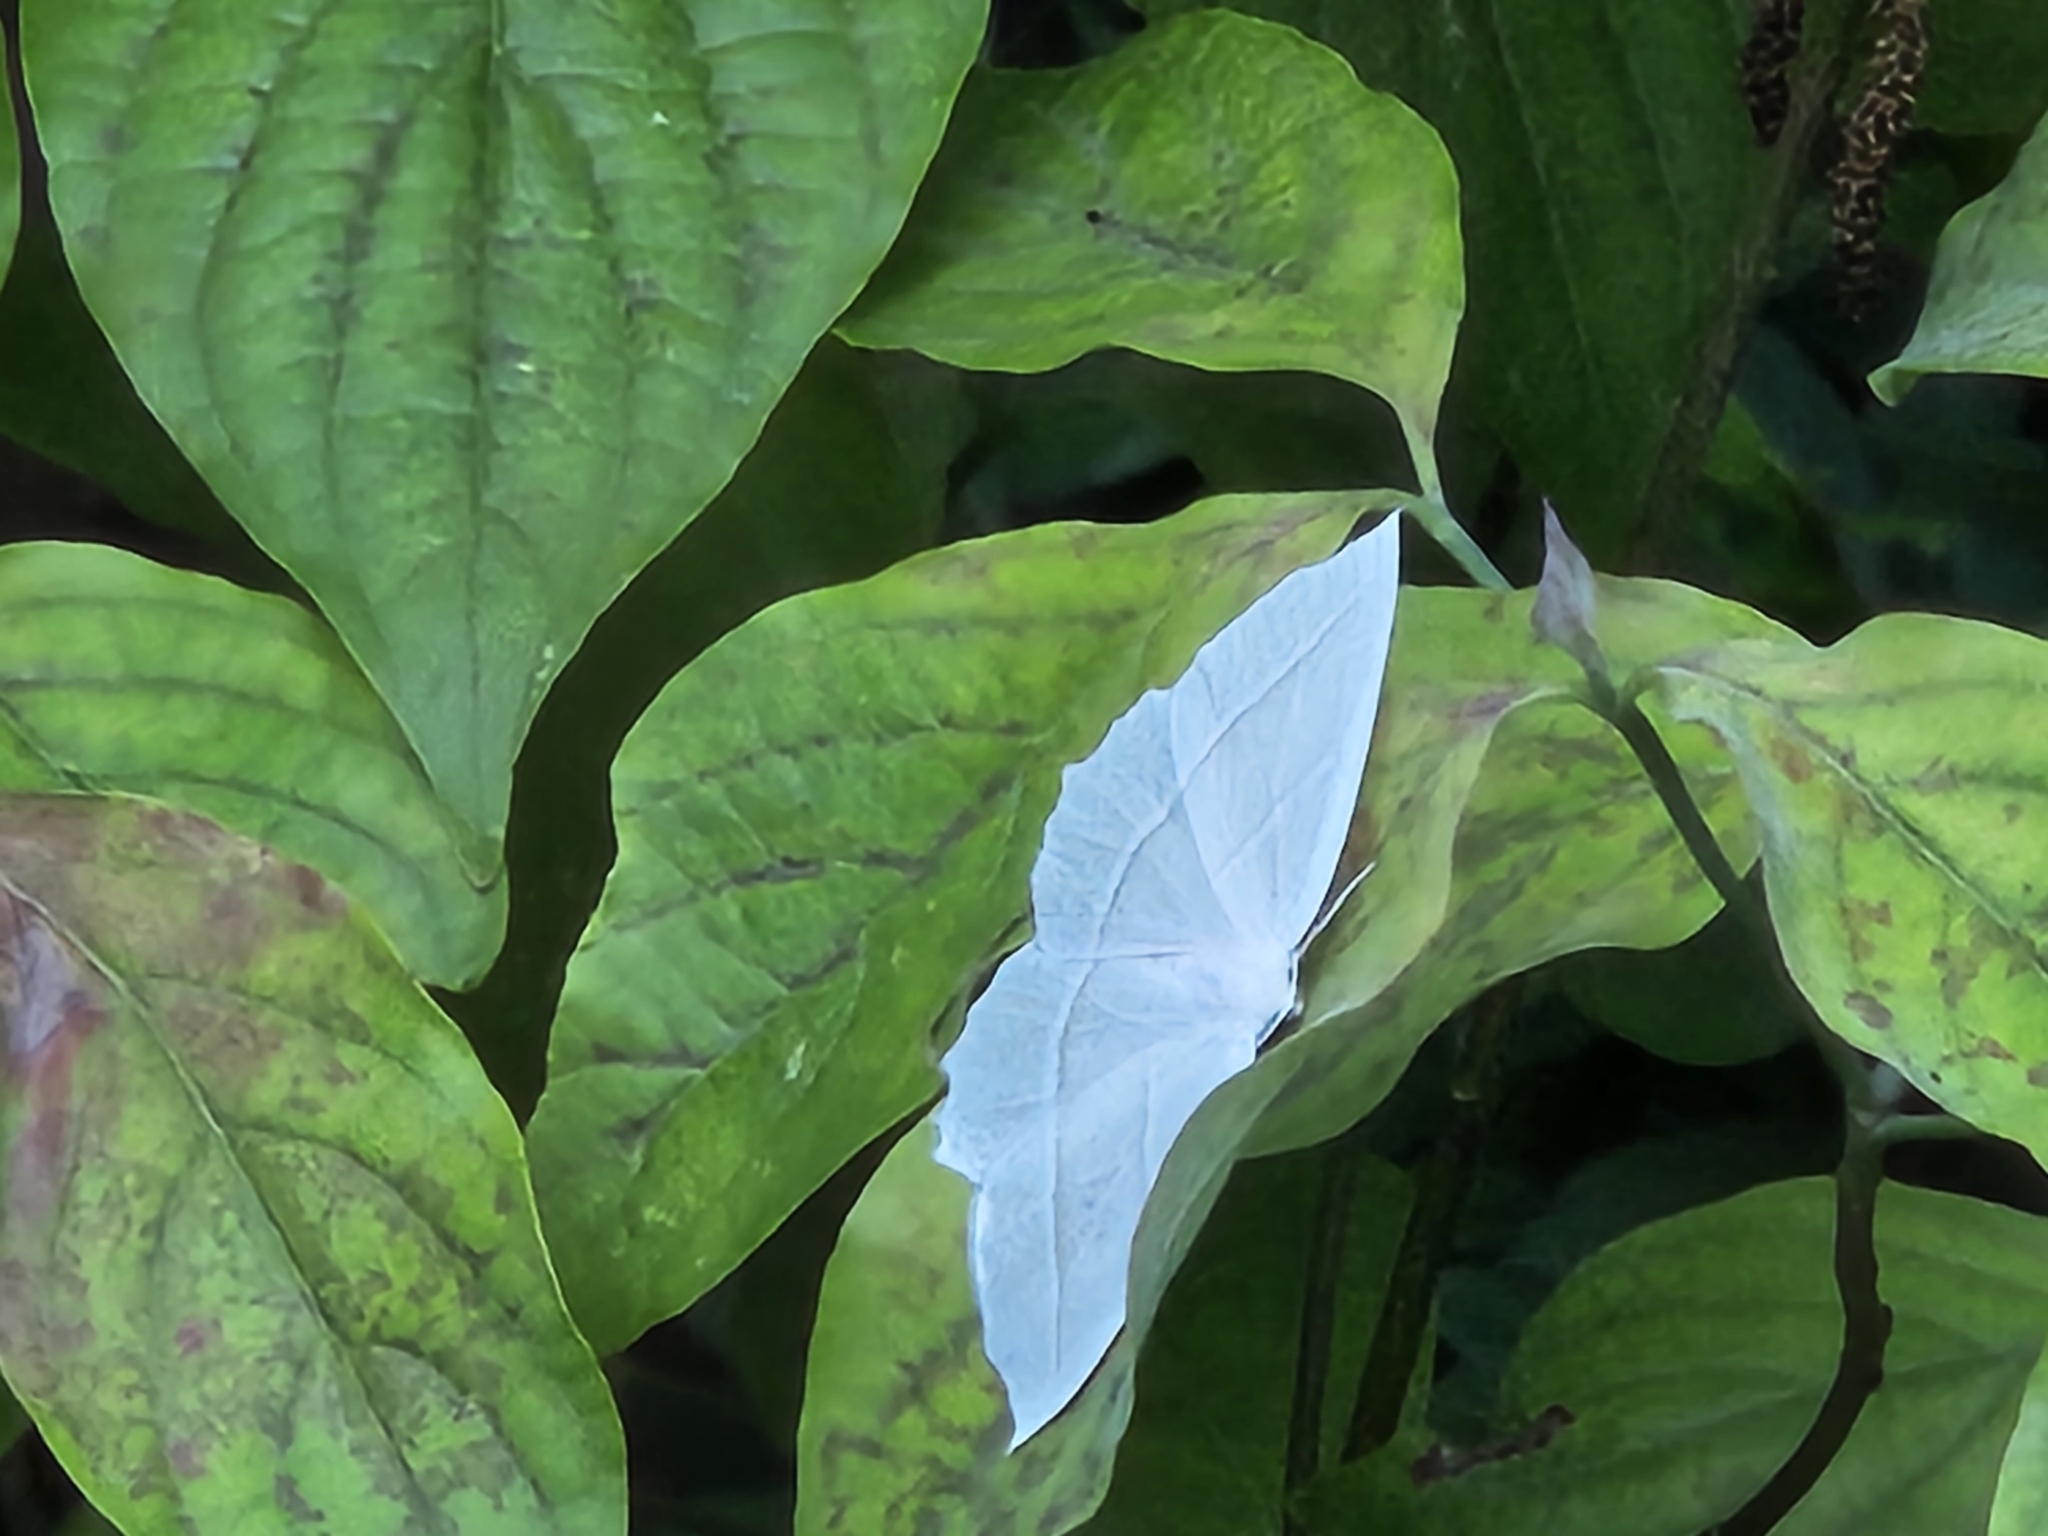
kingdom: Animalia
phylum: Arthropoda
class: Insecta
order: Lepidoptera
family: Geometridae
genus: Campaea
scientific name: Campaea perlata
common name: Fringed looper
